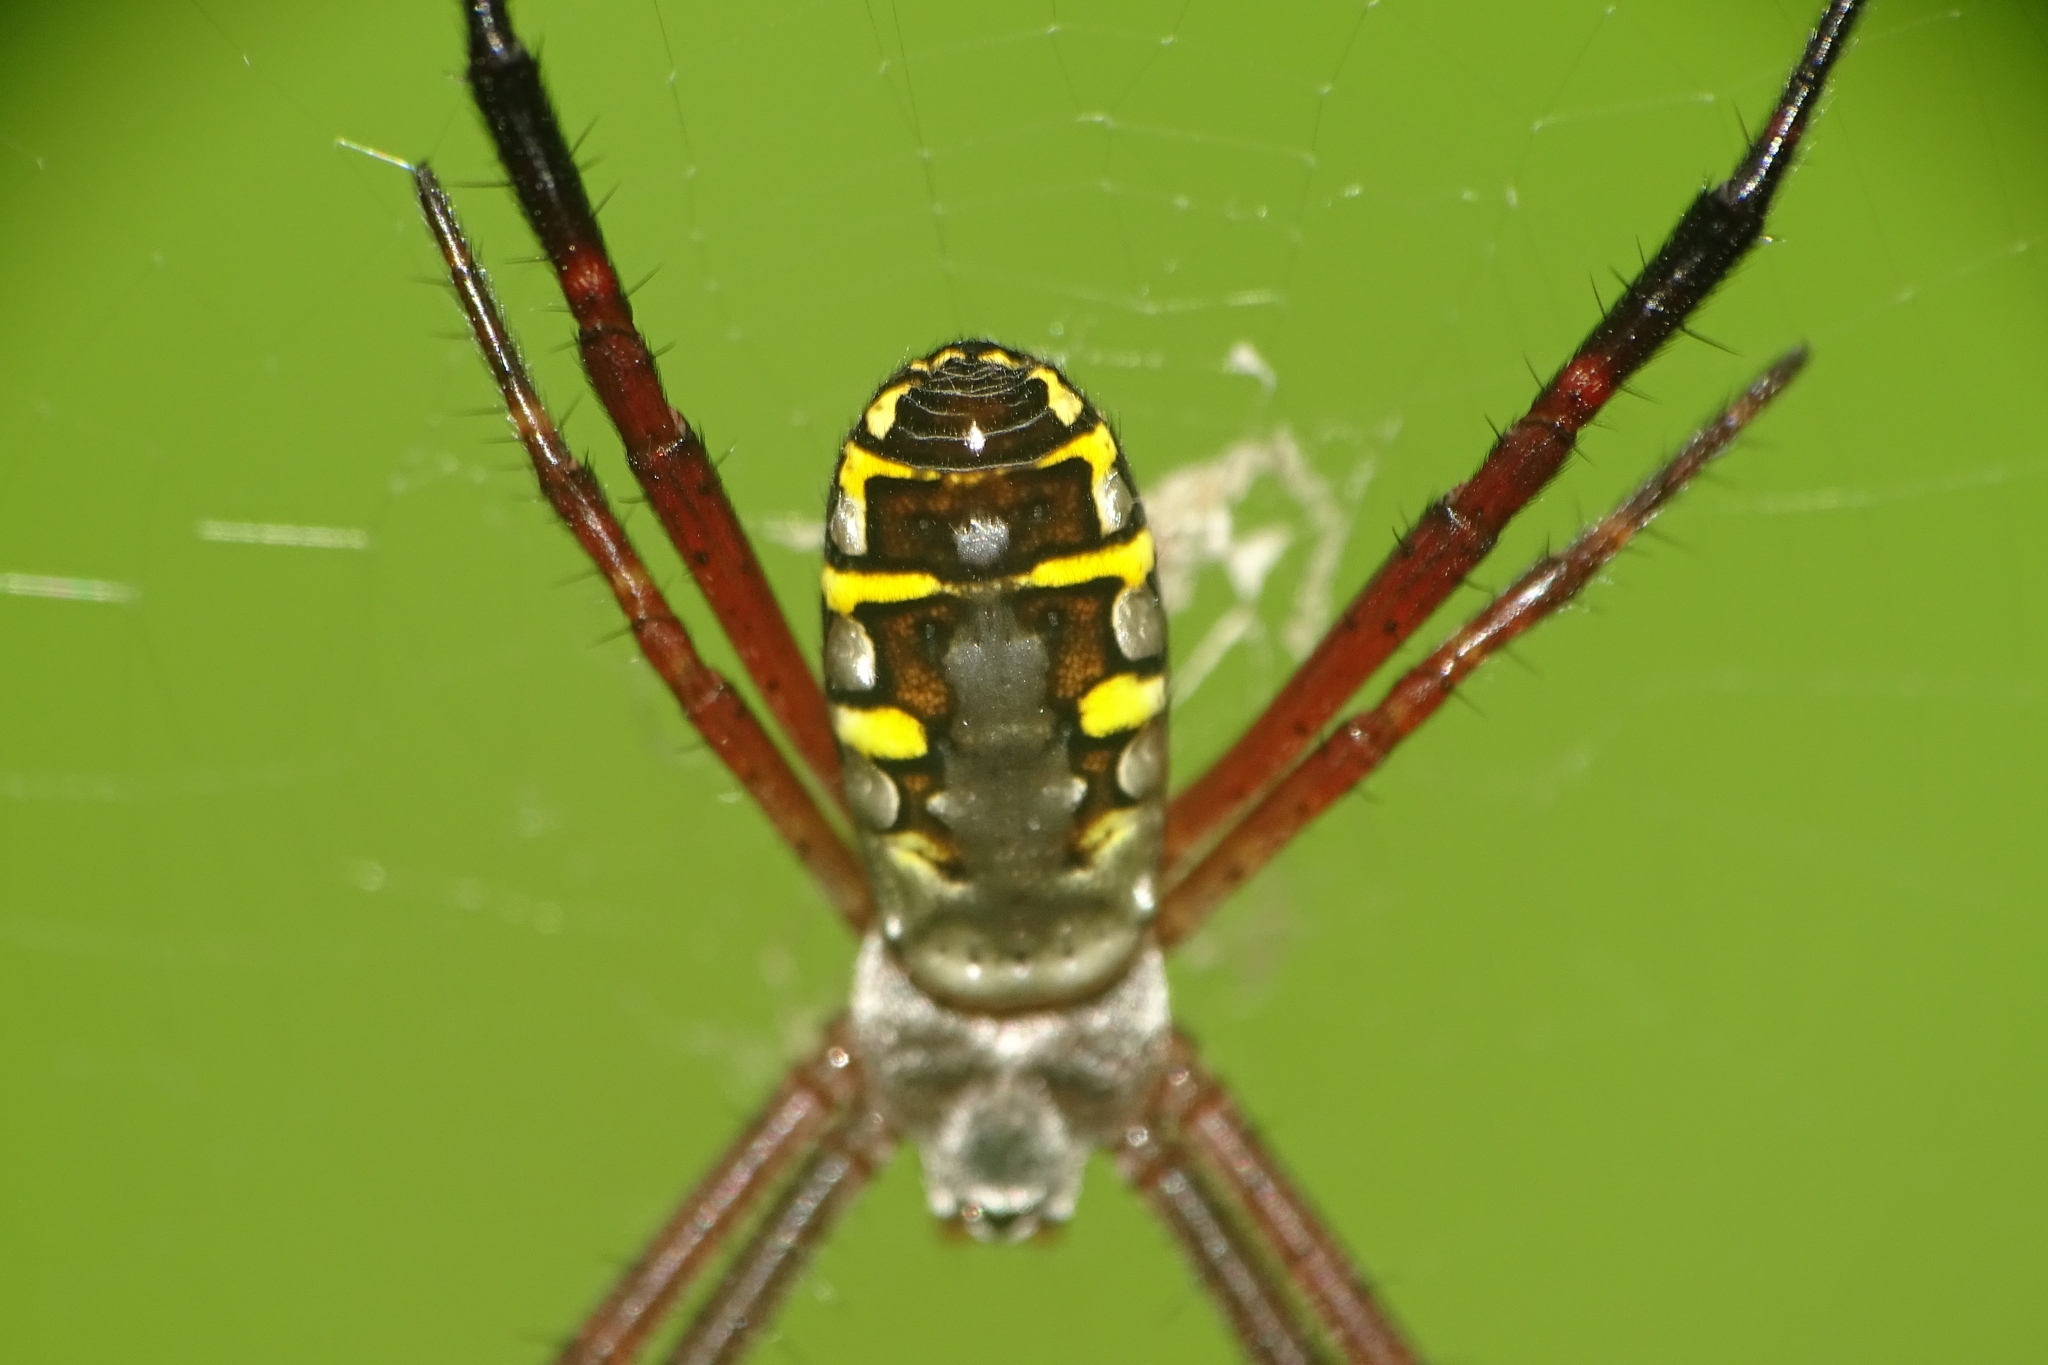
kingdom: Animalia
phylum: Arthropoda
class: Arachnida
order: Araneae
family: Araneidae
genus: Argiope
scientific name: Argiope catenulata
